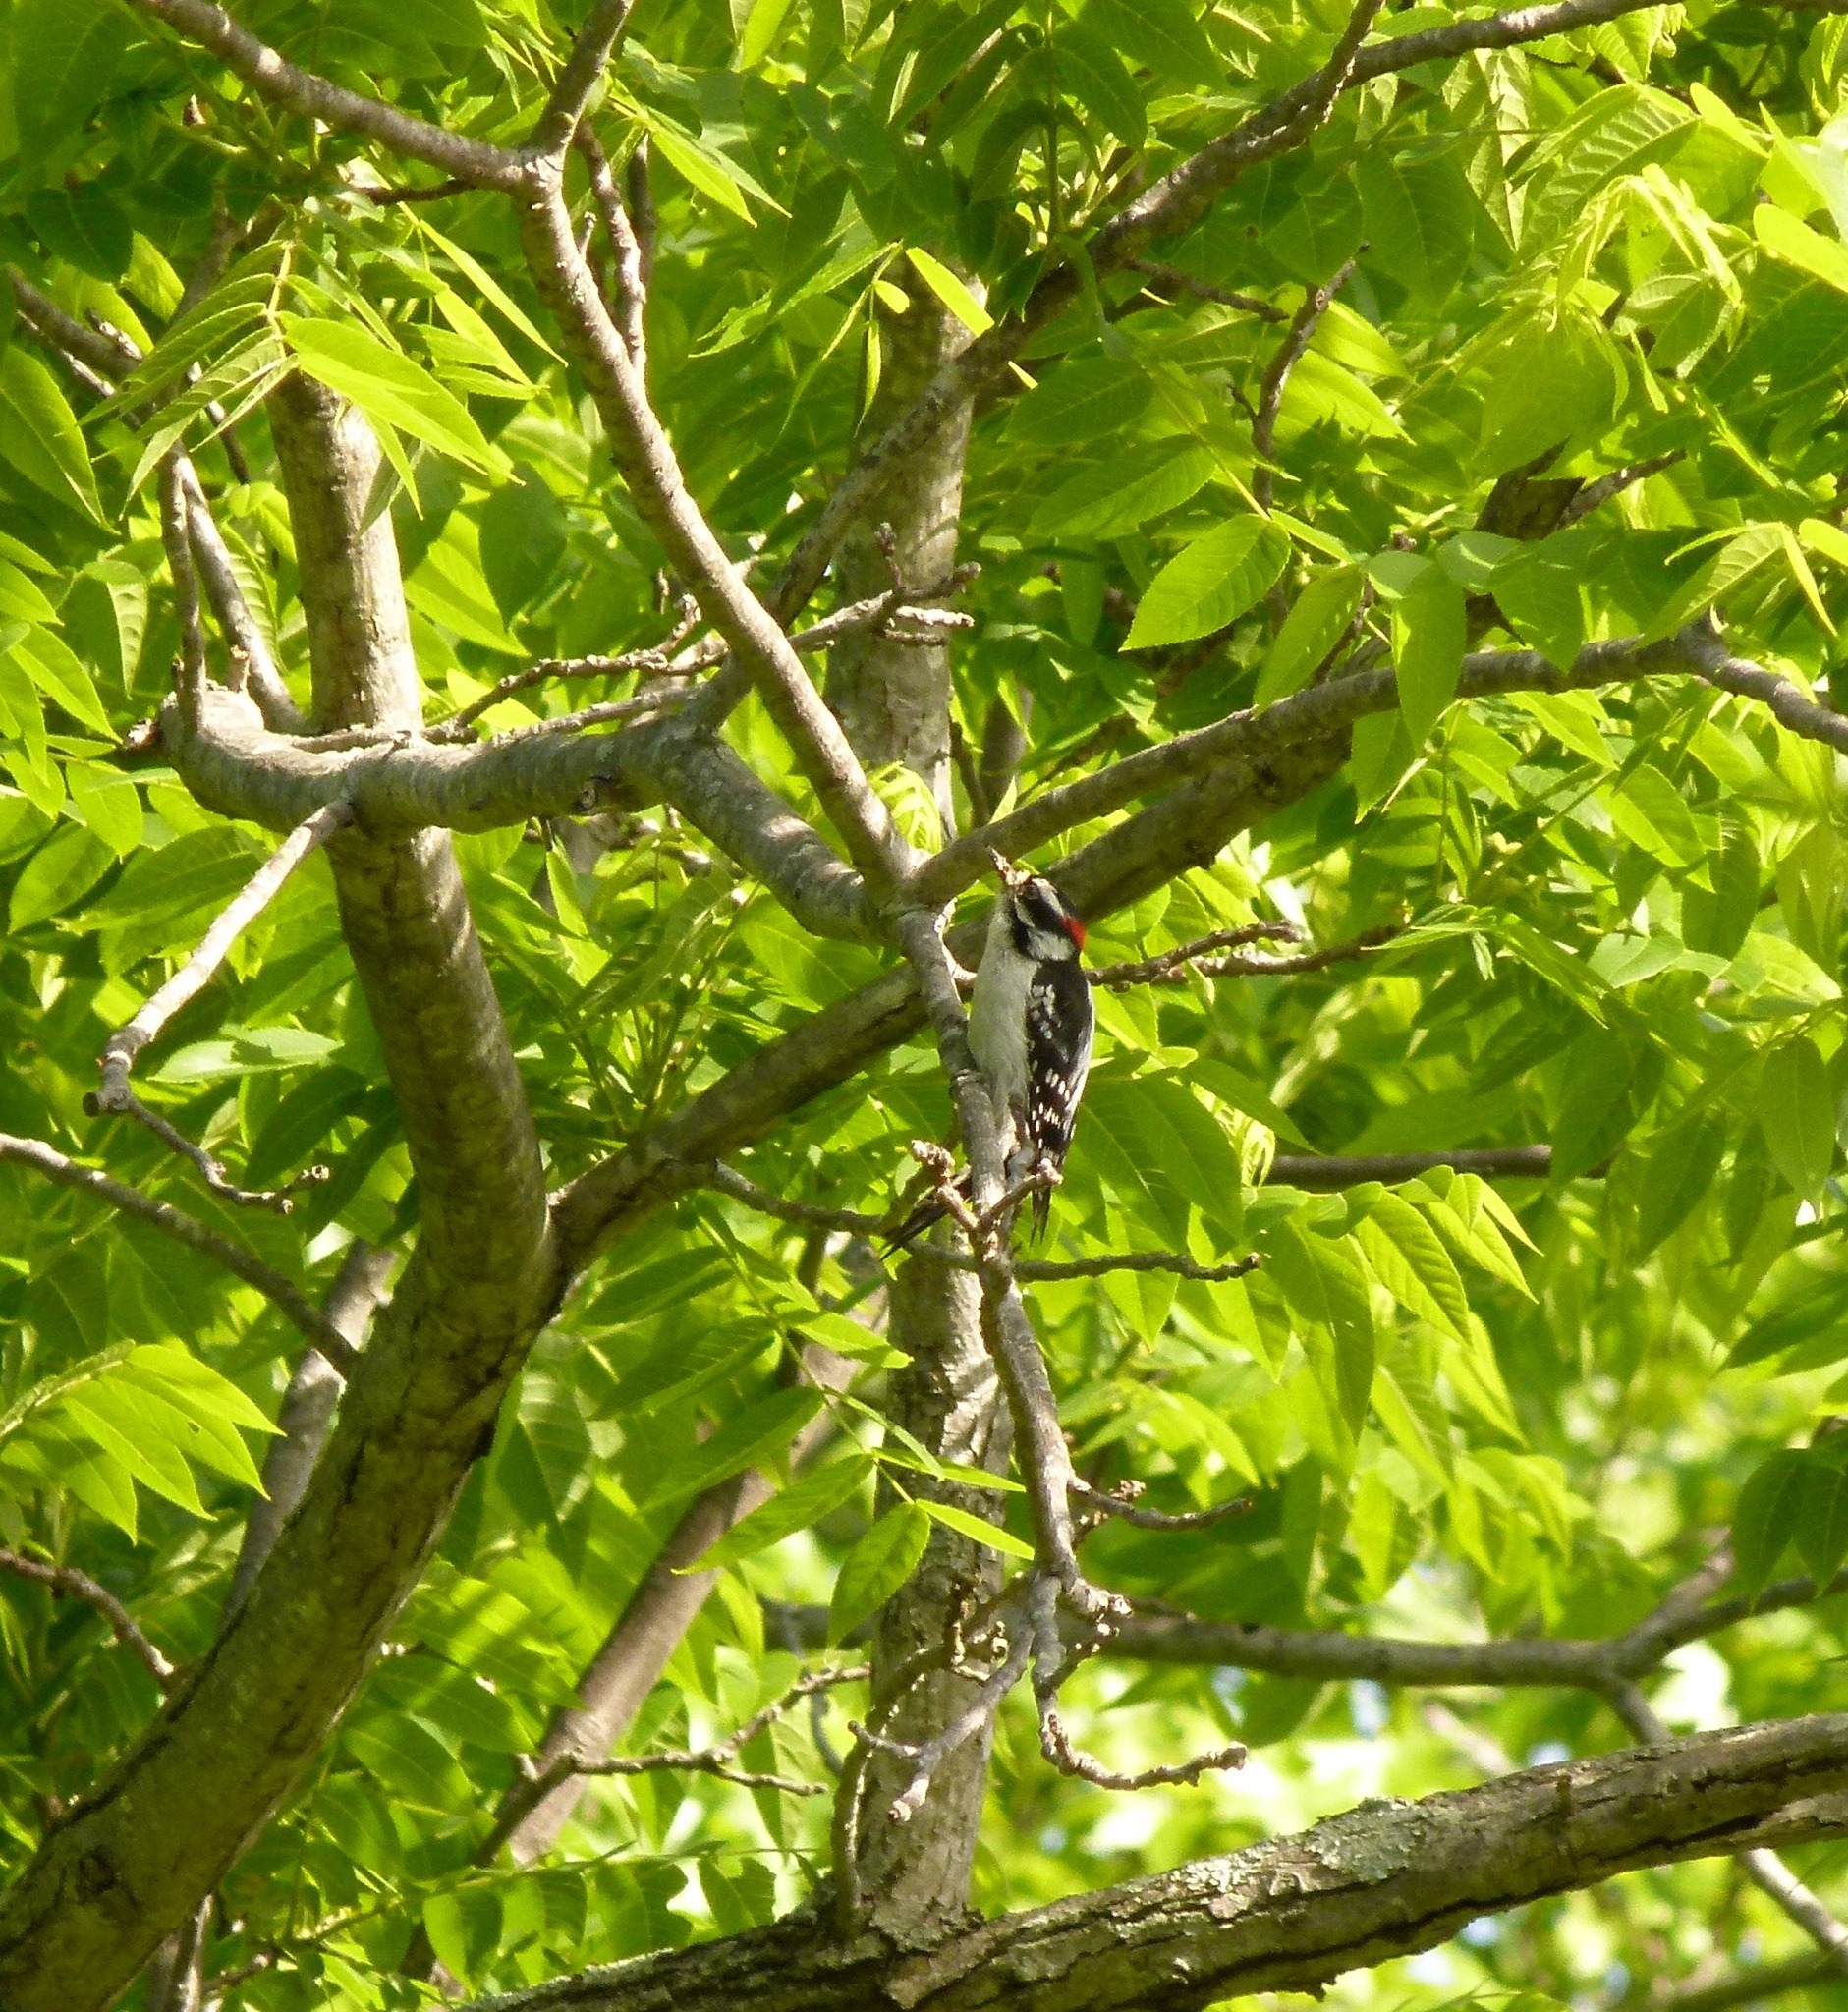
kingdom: Animalia
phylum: Chordata
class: Aves
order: Piciformes
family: Picidae
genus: Dryobates
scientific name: Dryobates pubescens
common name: Downy woodpecker
